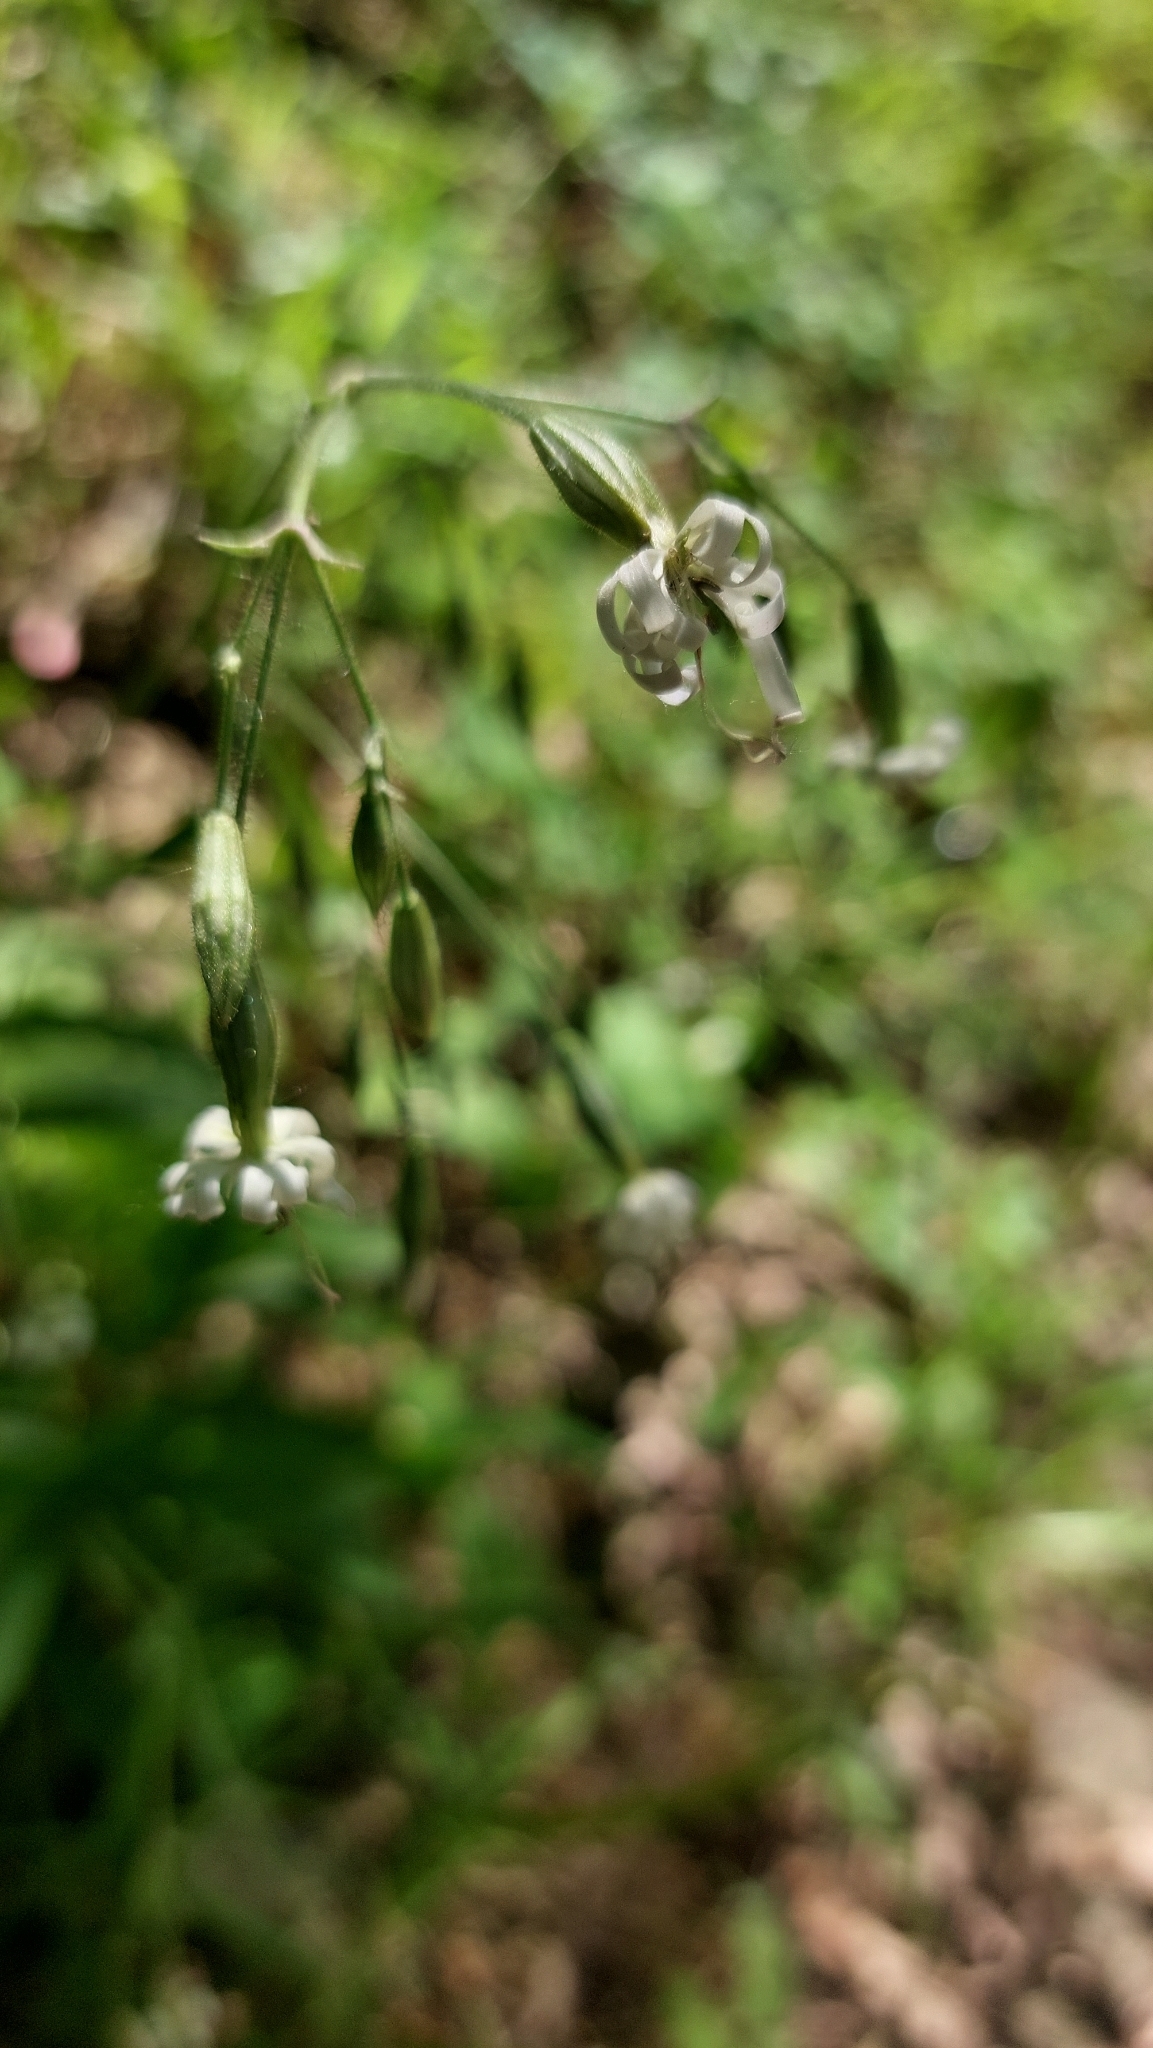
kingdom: Plantae
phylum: Tracheophyta
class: Magnoliopsida
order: Caryophyllales
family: Caryophyllaceae
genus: Silene
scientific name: Silene nutans
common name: Nottingham catchfly
